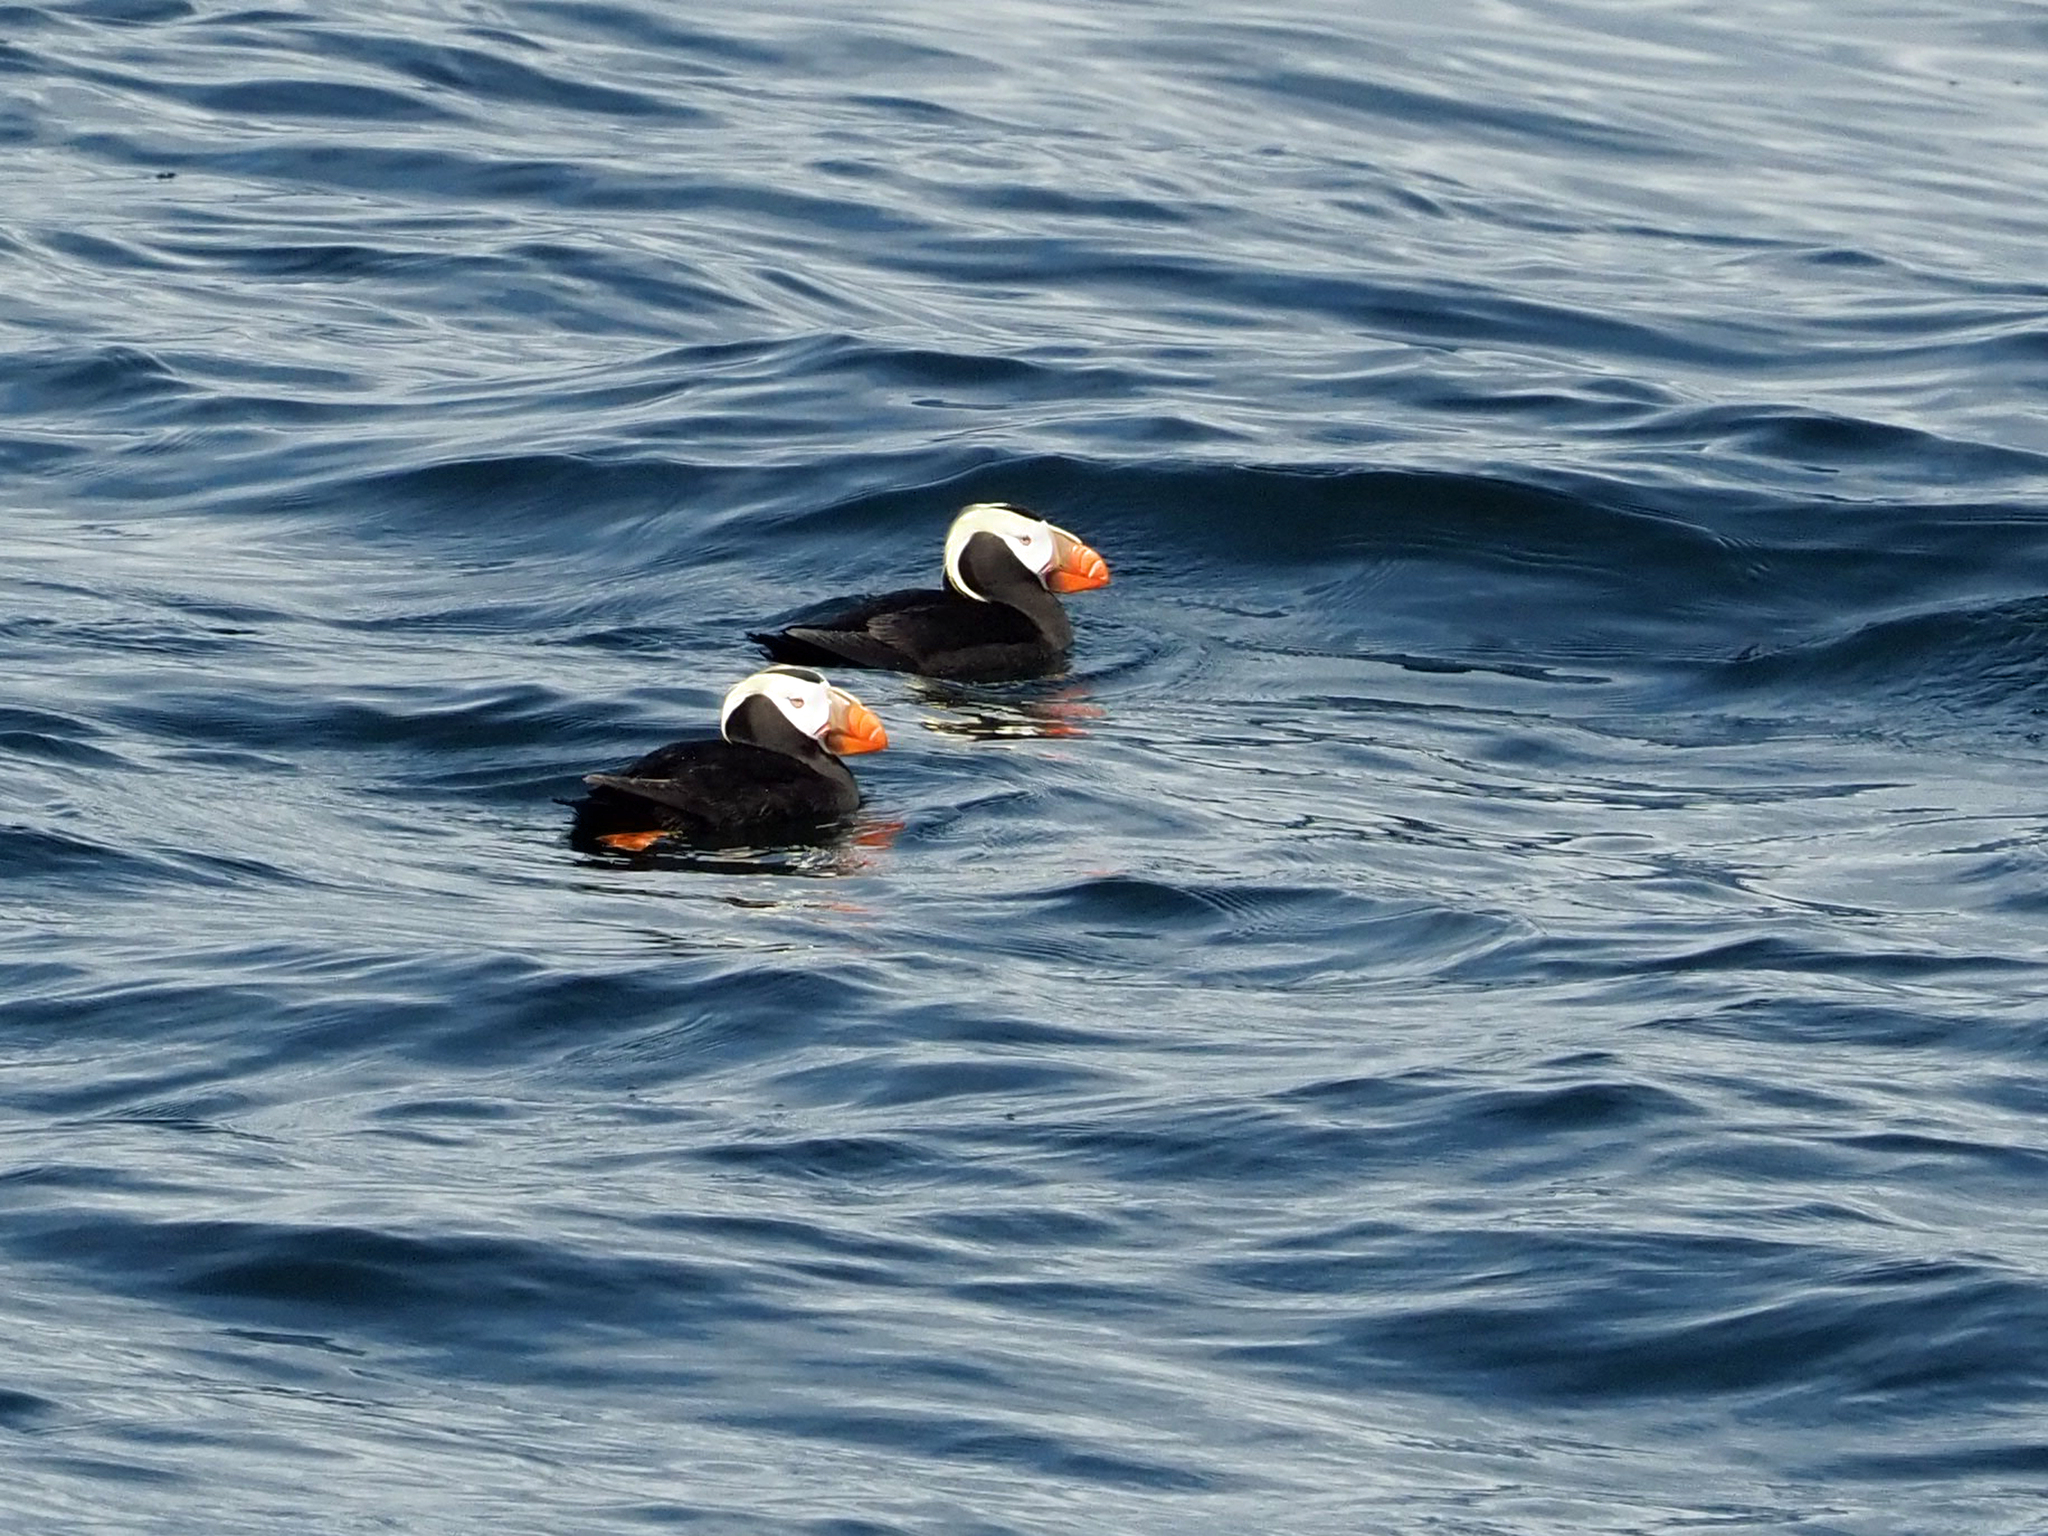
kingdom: Animalia
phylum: Chordata
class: Aves
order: Charadriiformes
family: Alcidae
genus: Fratercula
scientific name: Fratercula cirrhata
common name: Tufted puffin
